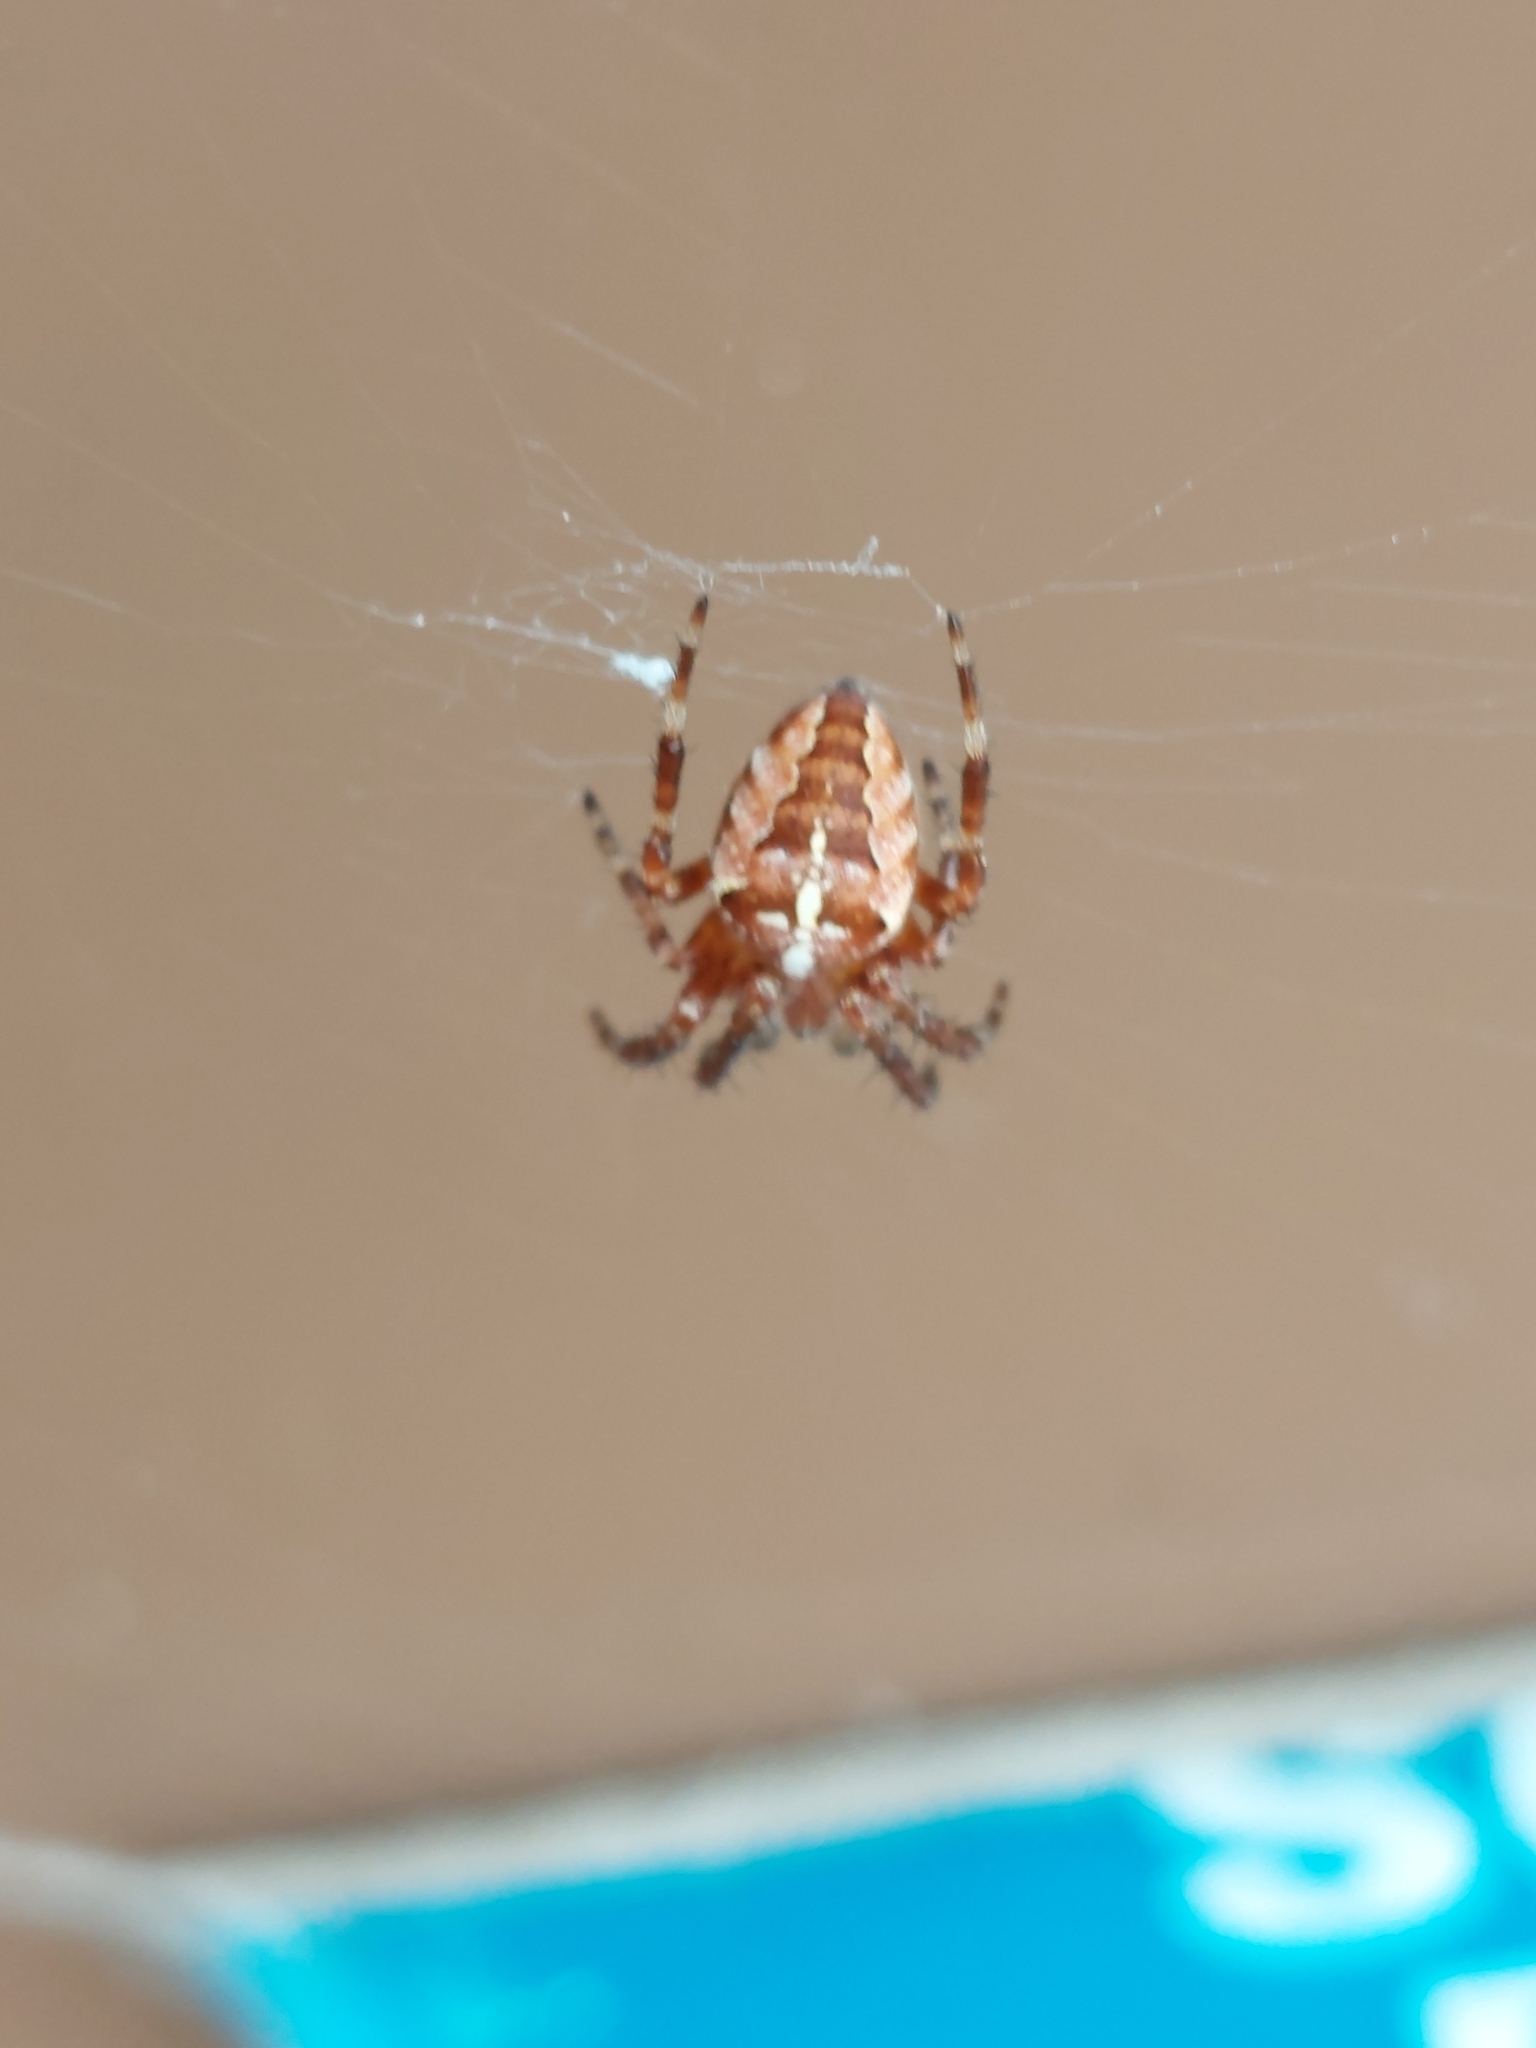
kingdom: Animalia
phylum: Arthropoda
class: Arachnida
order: Araneae
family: Araneidae
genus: Araneus
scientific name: Araneus diadematus
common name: Cross orbweaver
